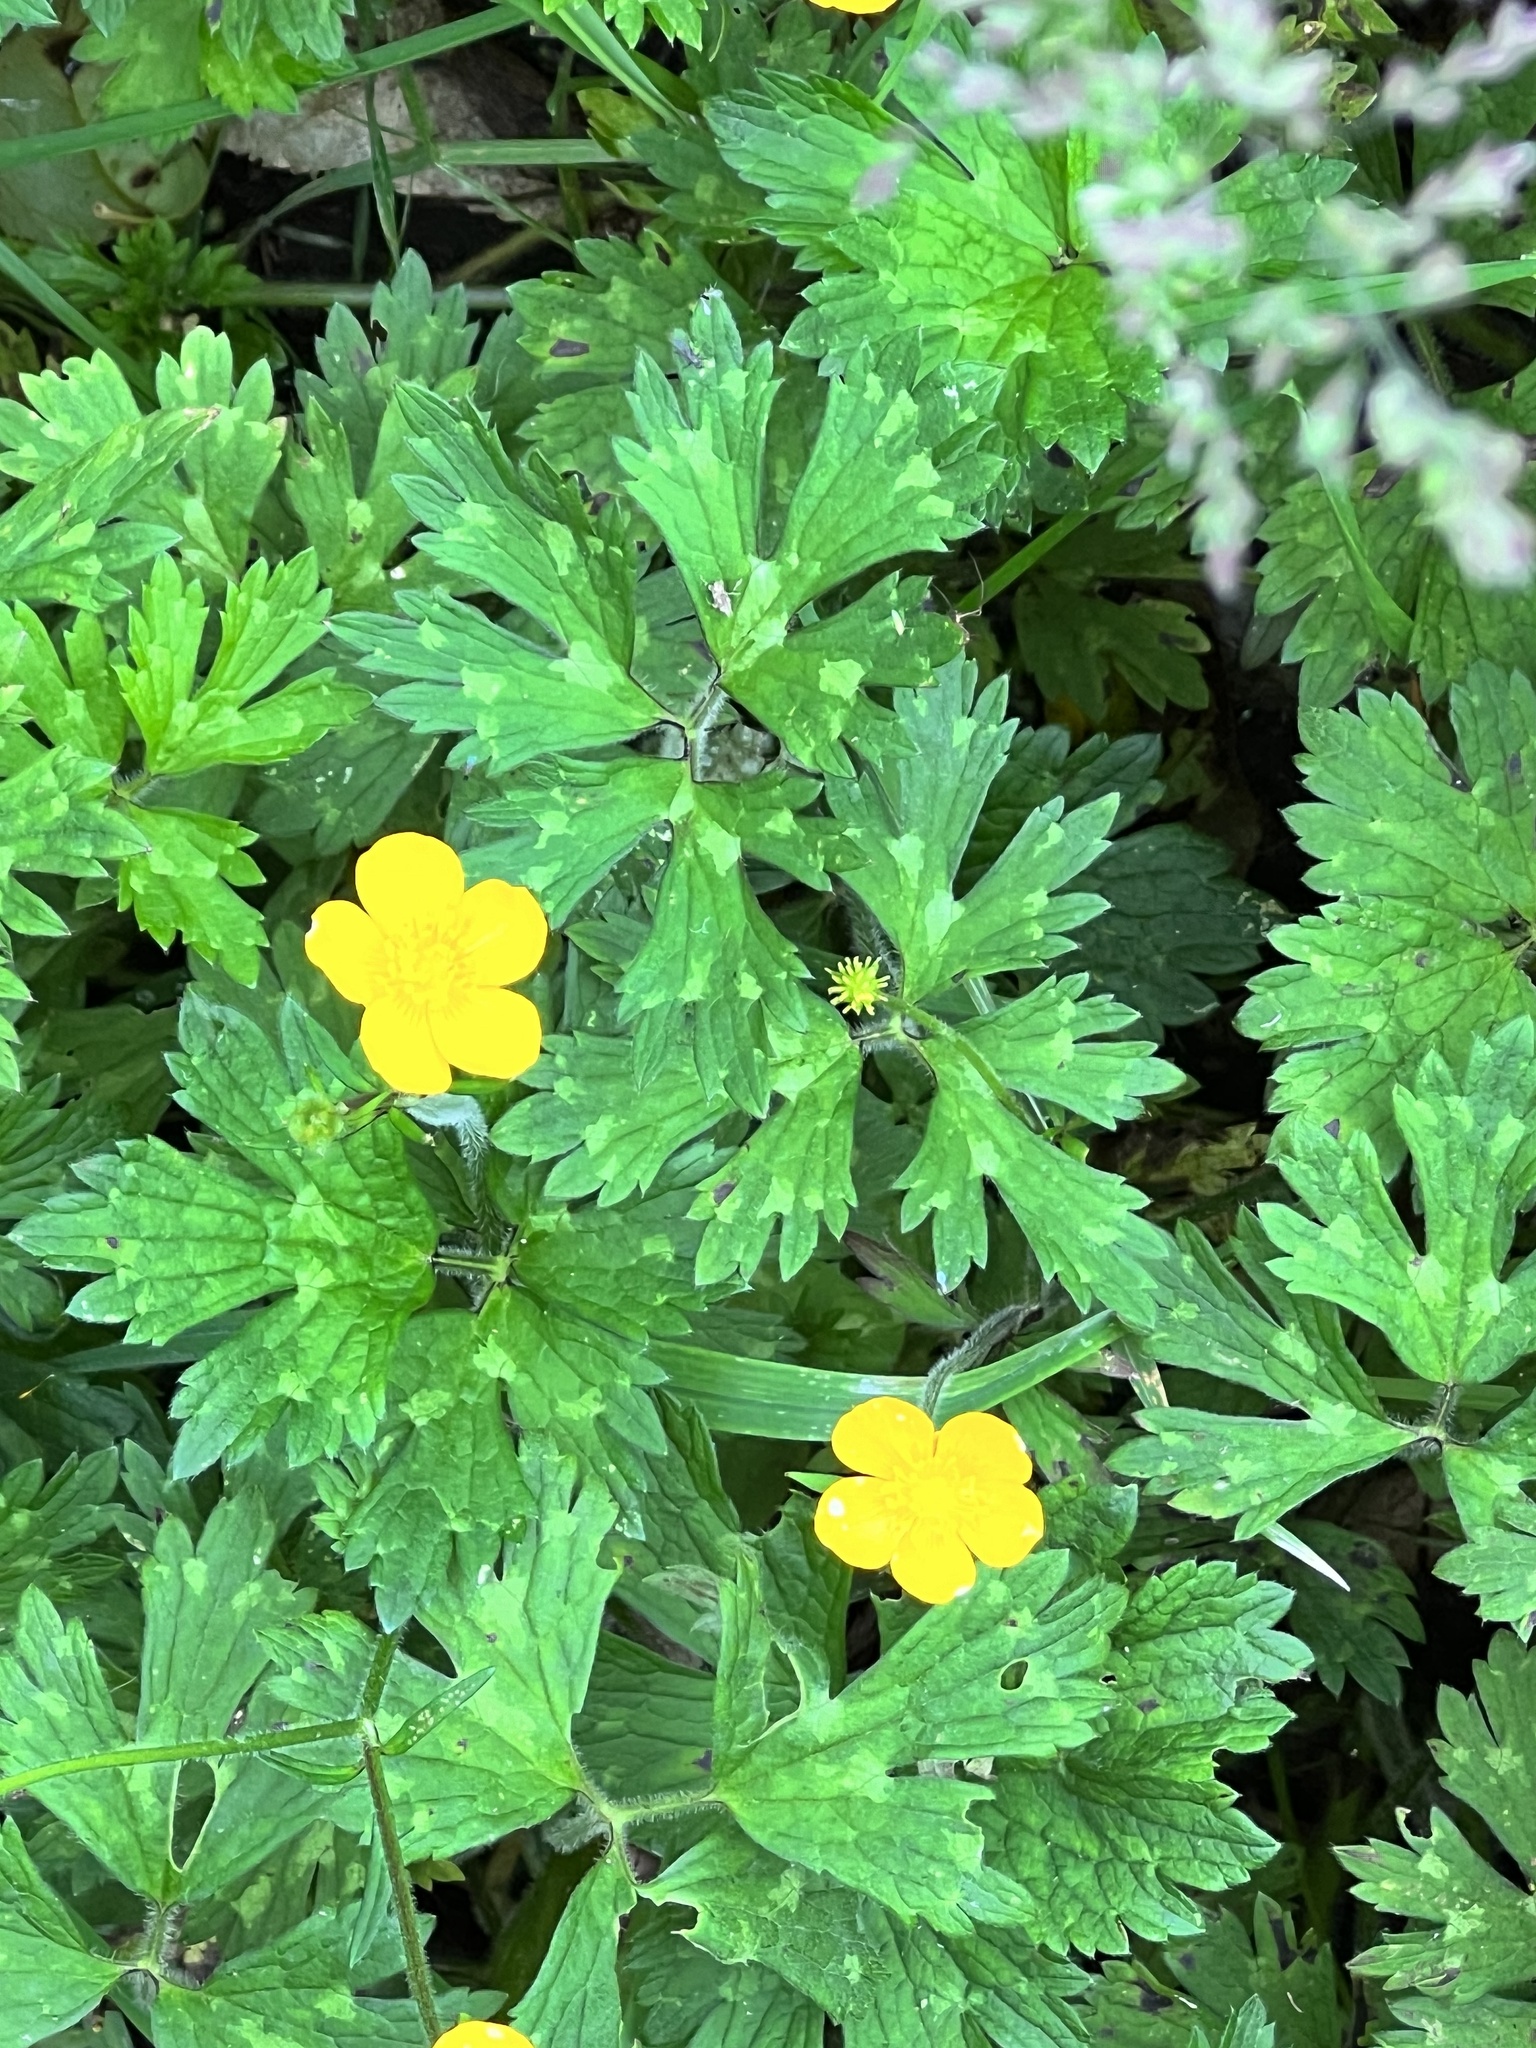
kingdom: Plantae
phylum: Tracheophyta
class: Magnoliopsida
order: Ranunculales
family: Ranunculaceae
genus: Ranunculus
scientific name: Ranunculus repens
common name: Creeping buttercup
